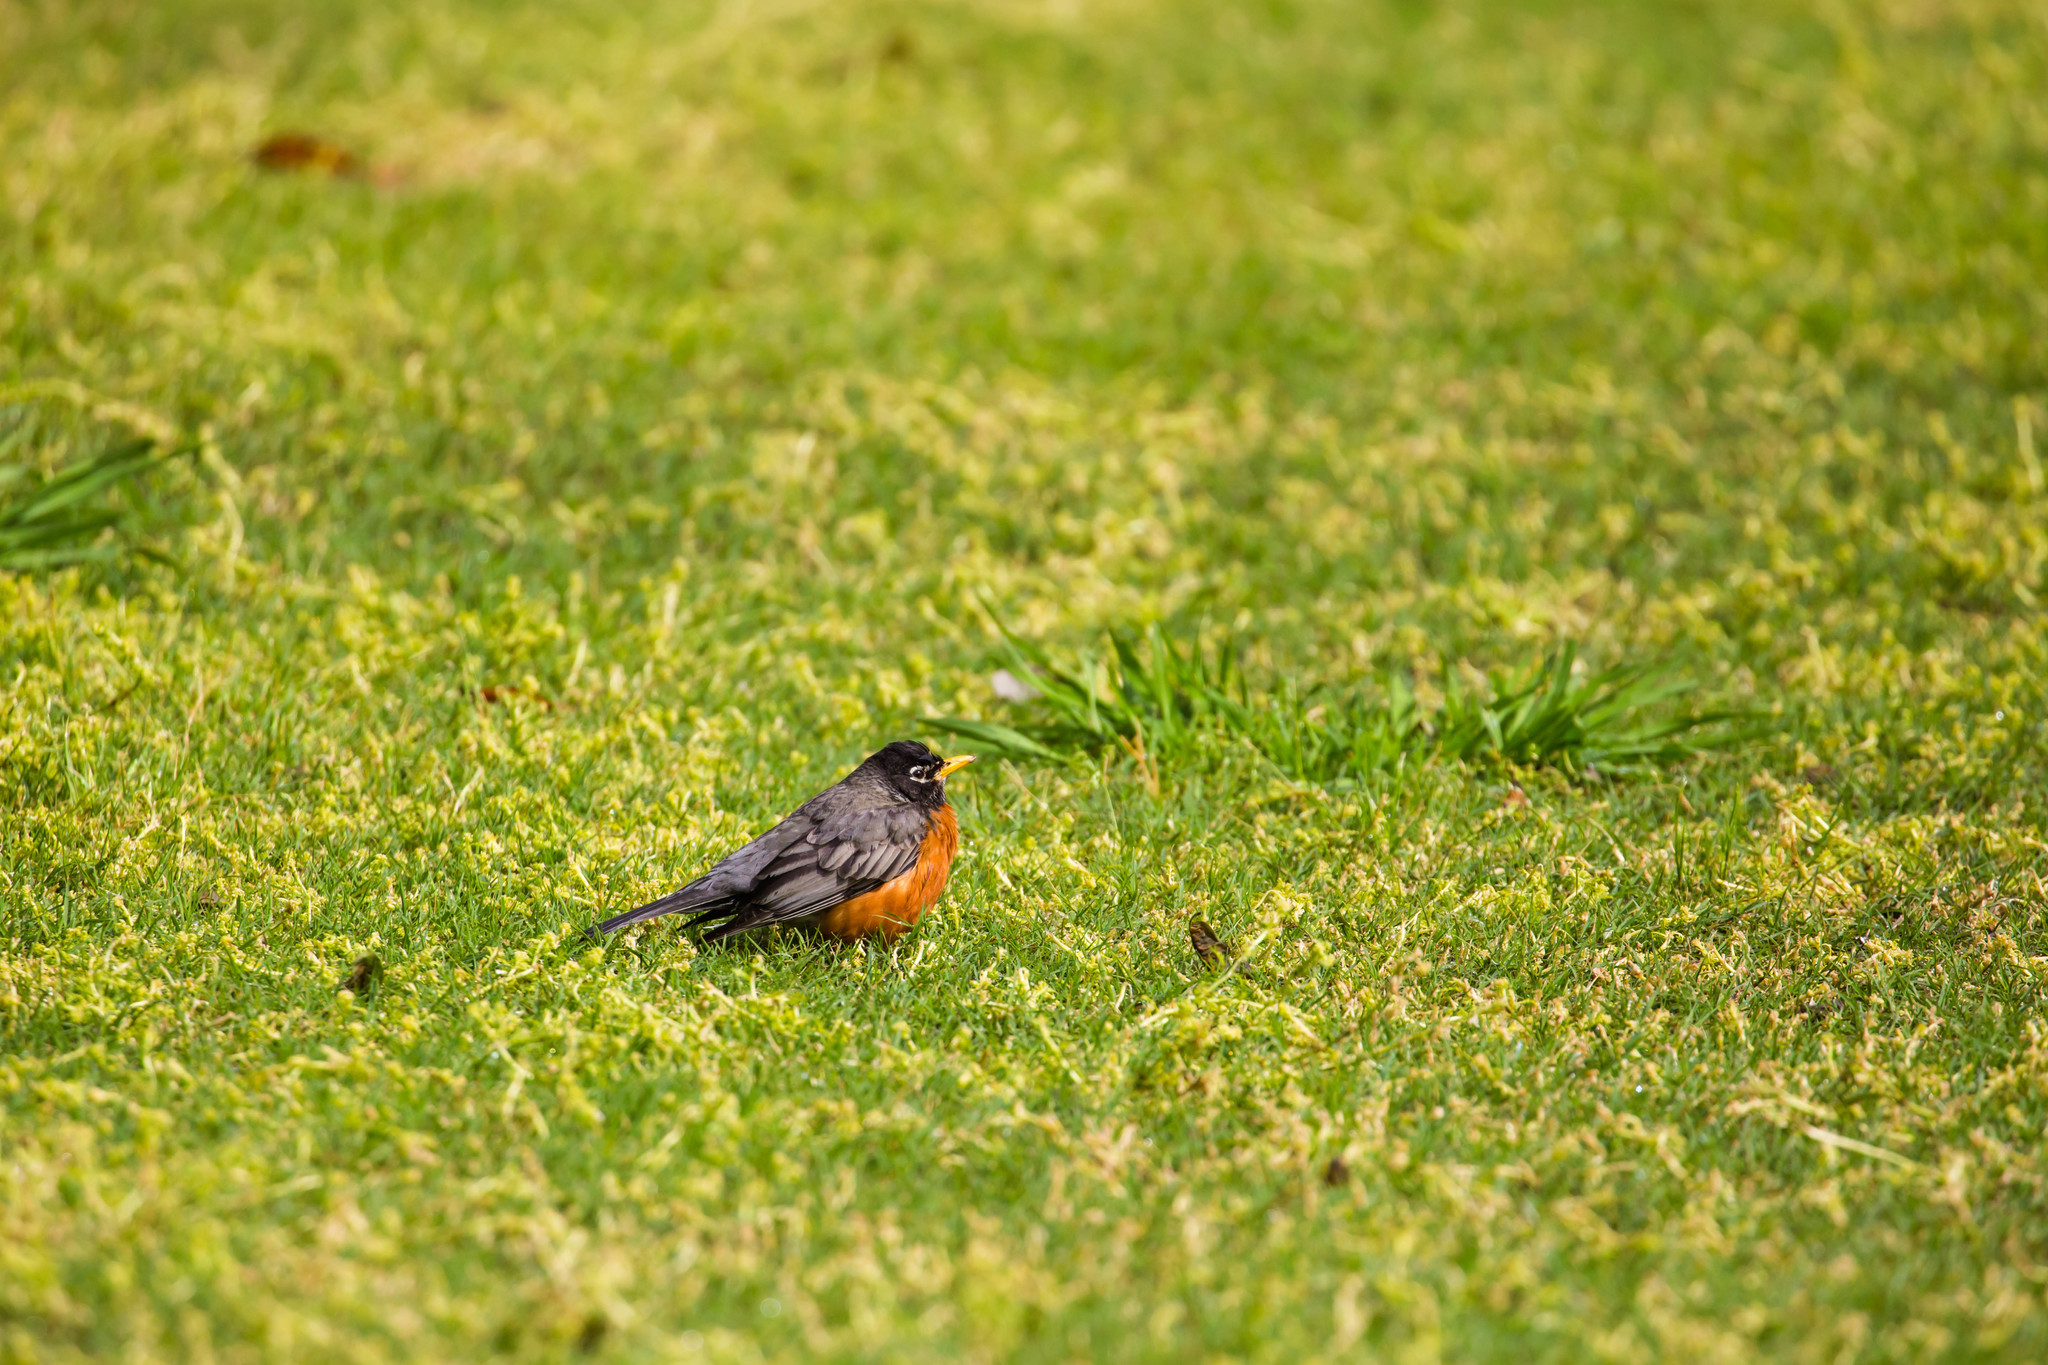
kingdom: Animalia
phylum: Chordata
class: Aves
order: Passeriformes
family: Turdidae
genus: Turdus
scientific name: Turdus migratorius
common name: American robin
